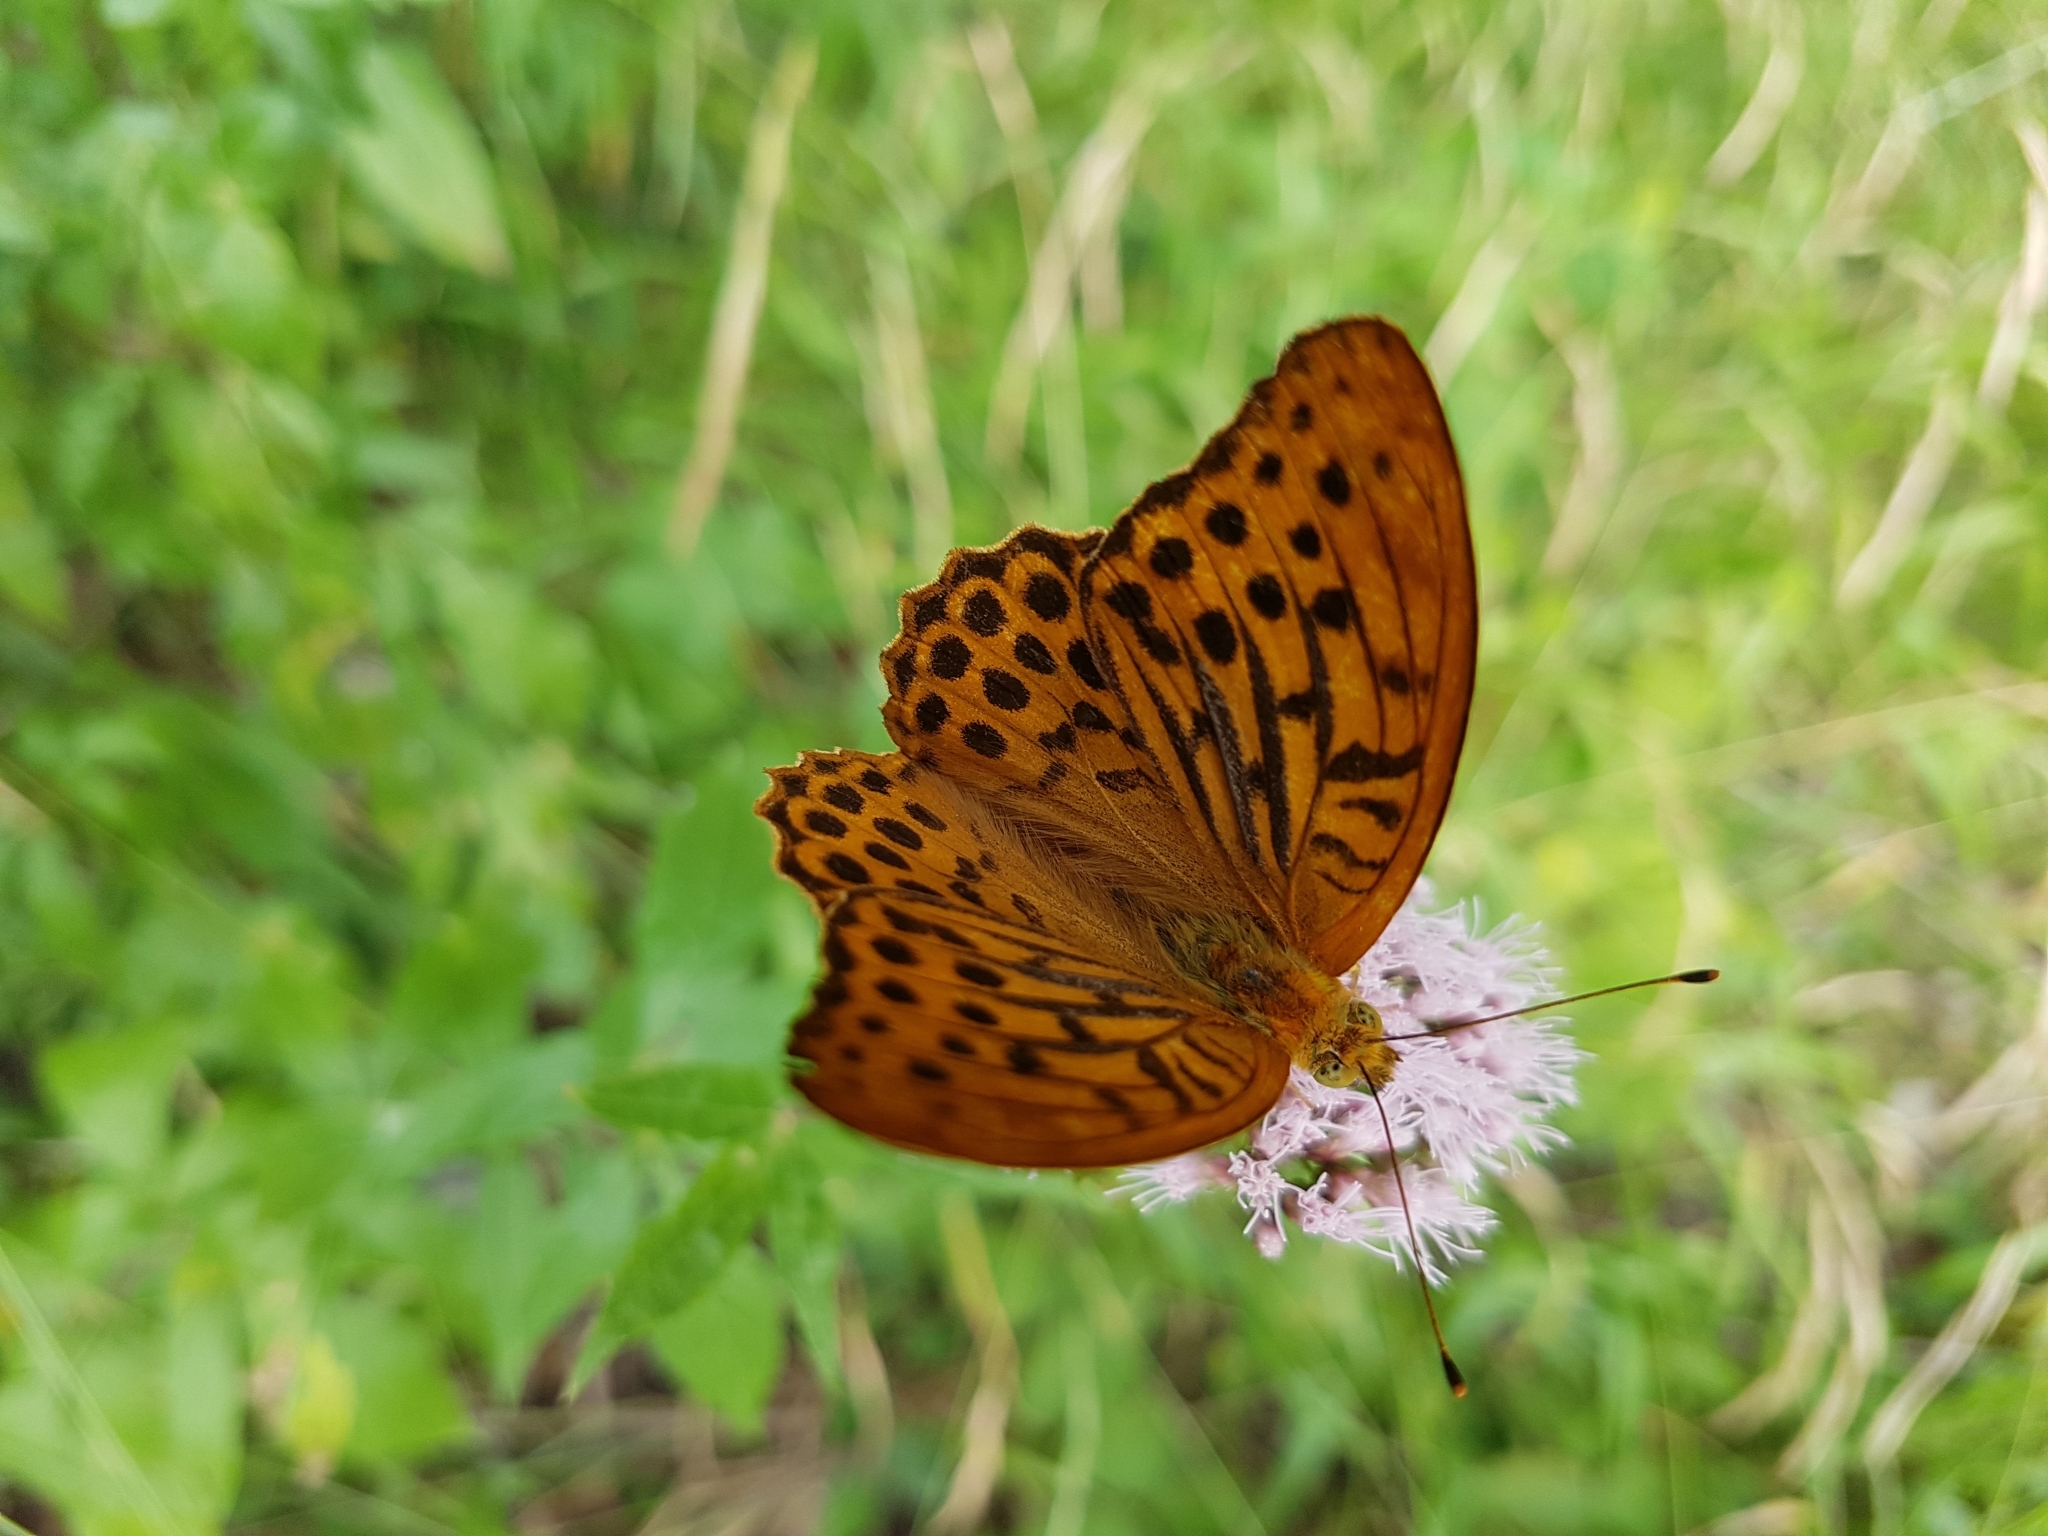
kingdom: Animalia
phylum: Arthropoda
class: Insecta
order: Lepidoptera
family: Nymphalidae
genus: Argynnis
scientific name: Argynnis paphia
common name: Silver-washed fritillary
